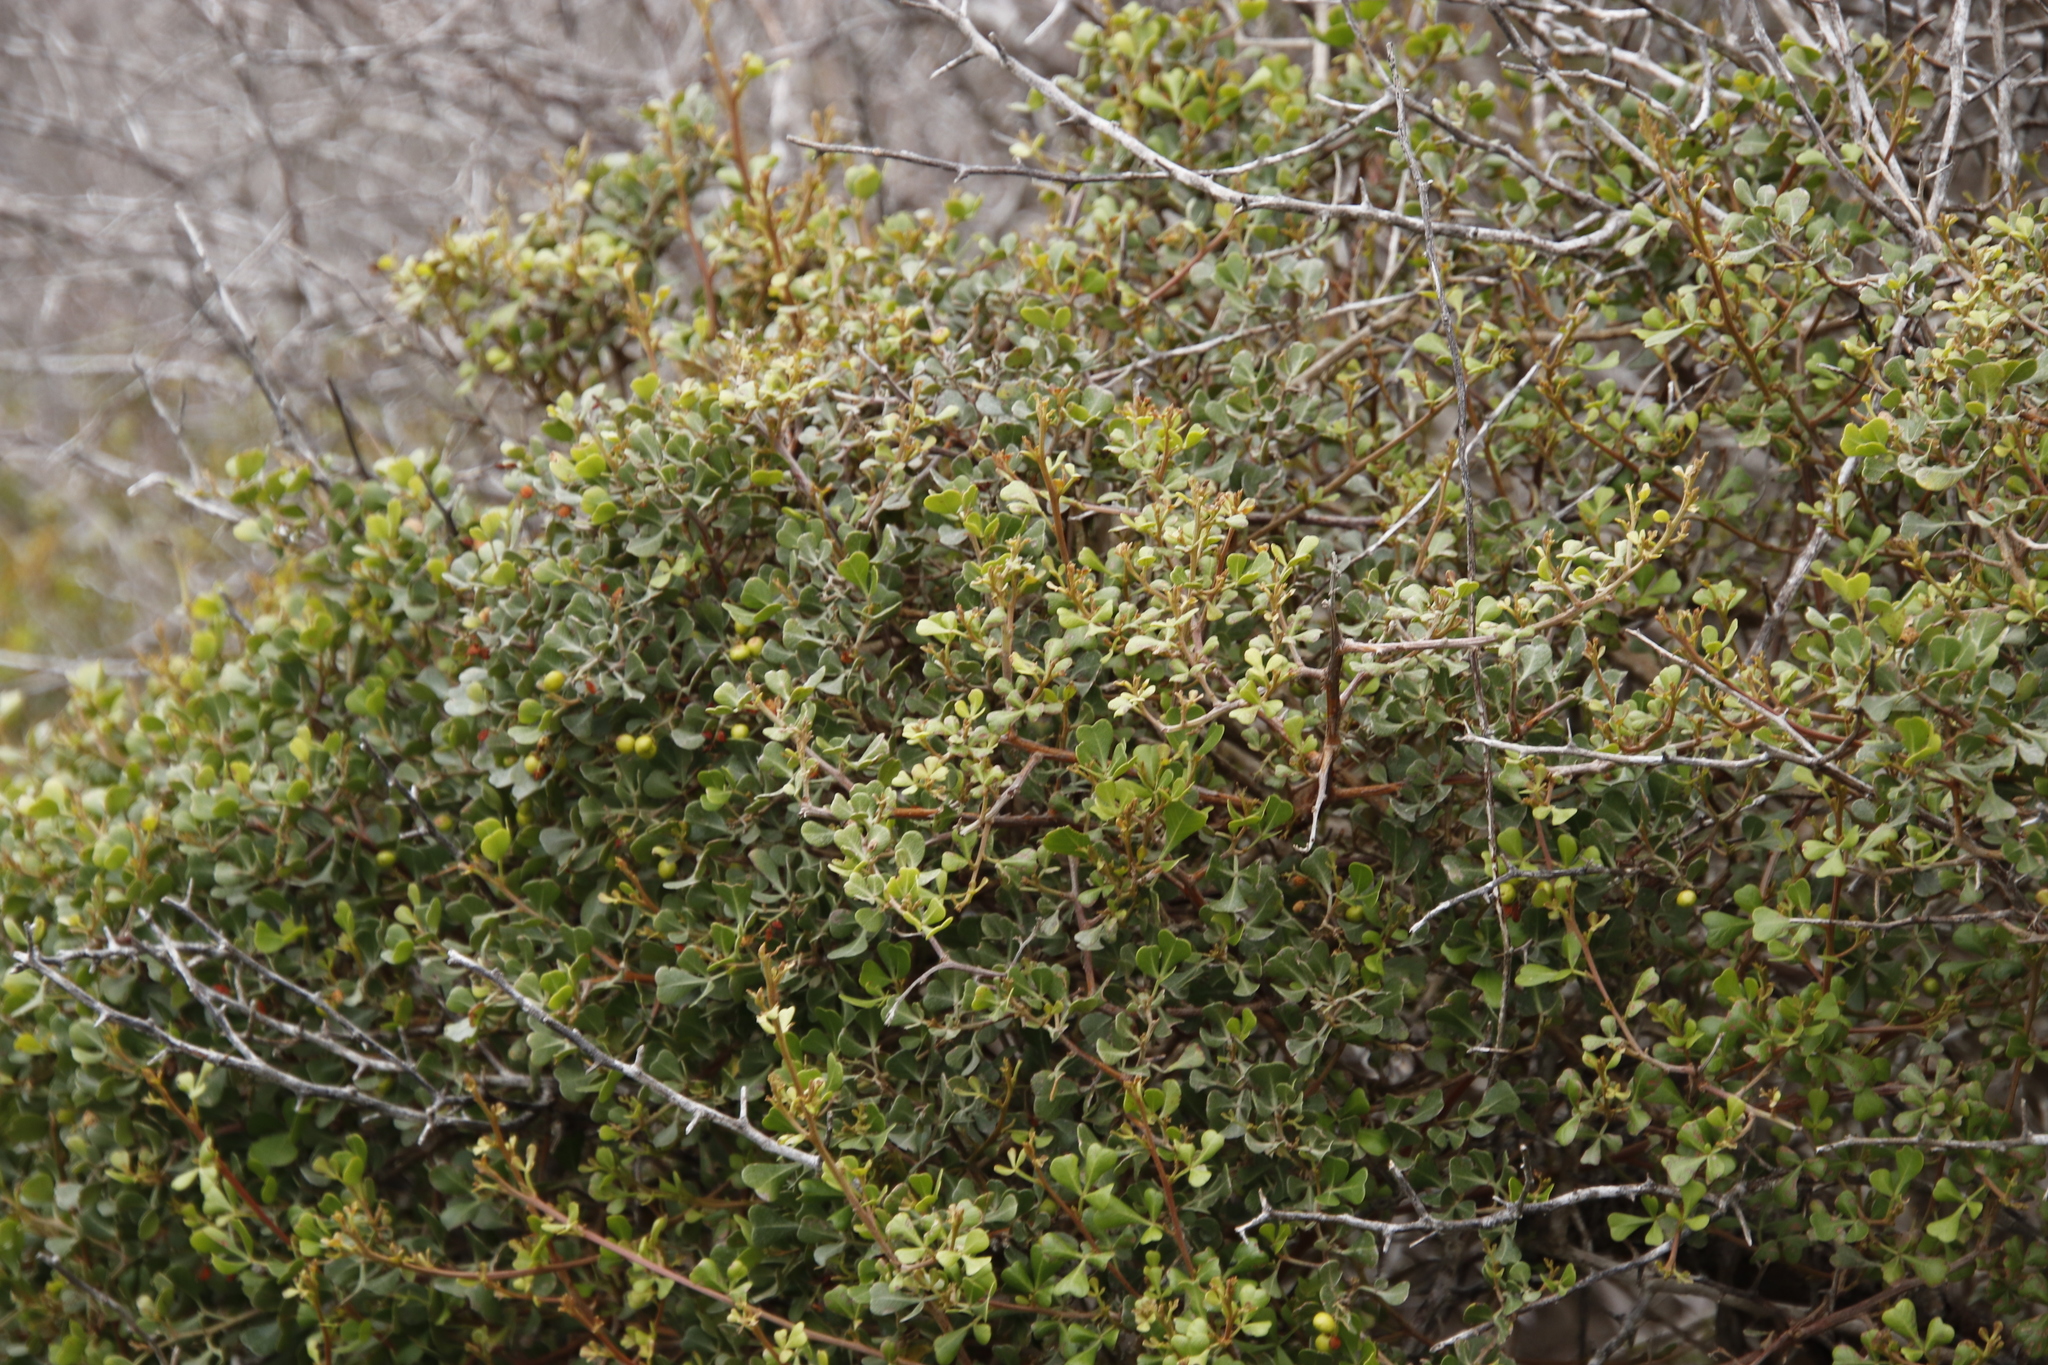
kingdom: Plantae
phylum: Tracheophyta
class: Magnoliopsida
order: Sapindales
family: Anacardiaceae
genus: Searsia
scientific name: Searsia glauca
